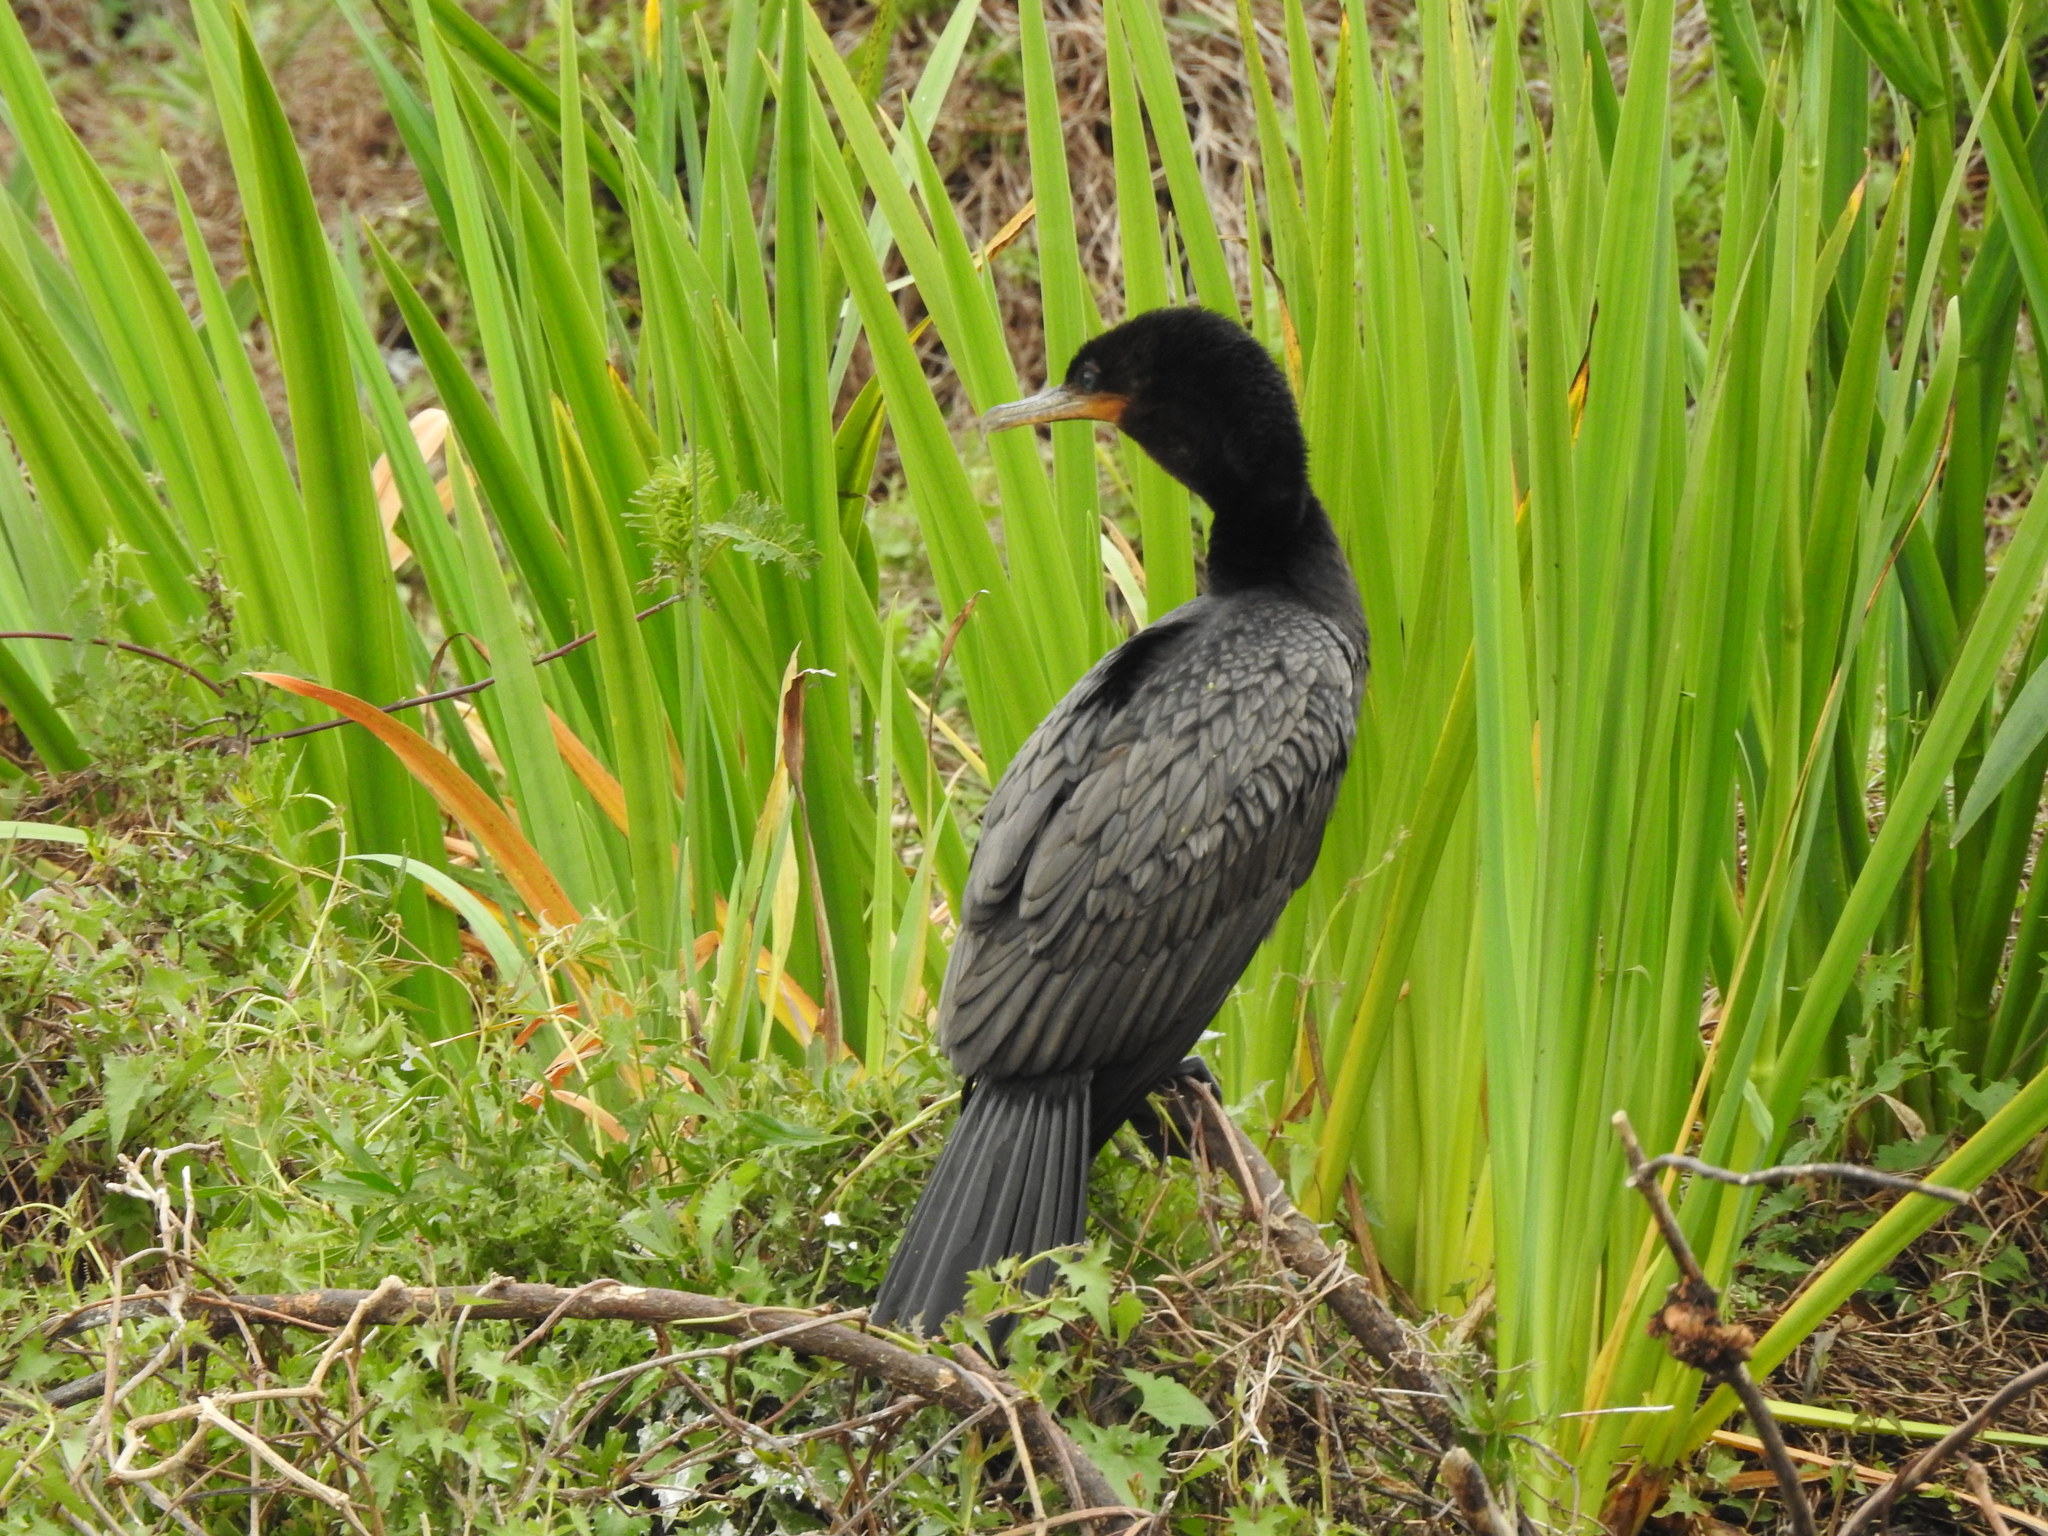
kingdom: Animalia
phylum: Chordata
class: Aves
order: Suliformes
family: Phalacrocoracidae
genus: Phalacrocorax
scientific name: Phalacrocorax brasilianus
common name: Neotropic cormorant
